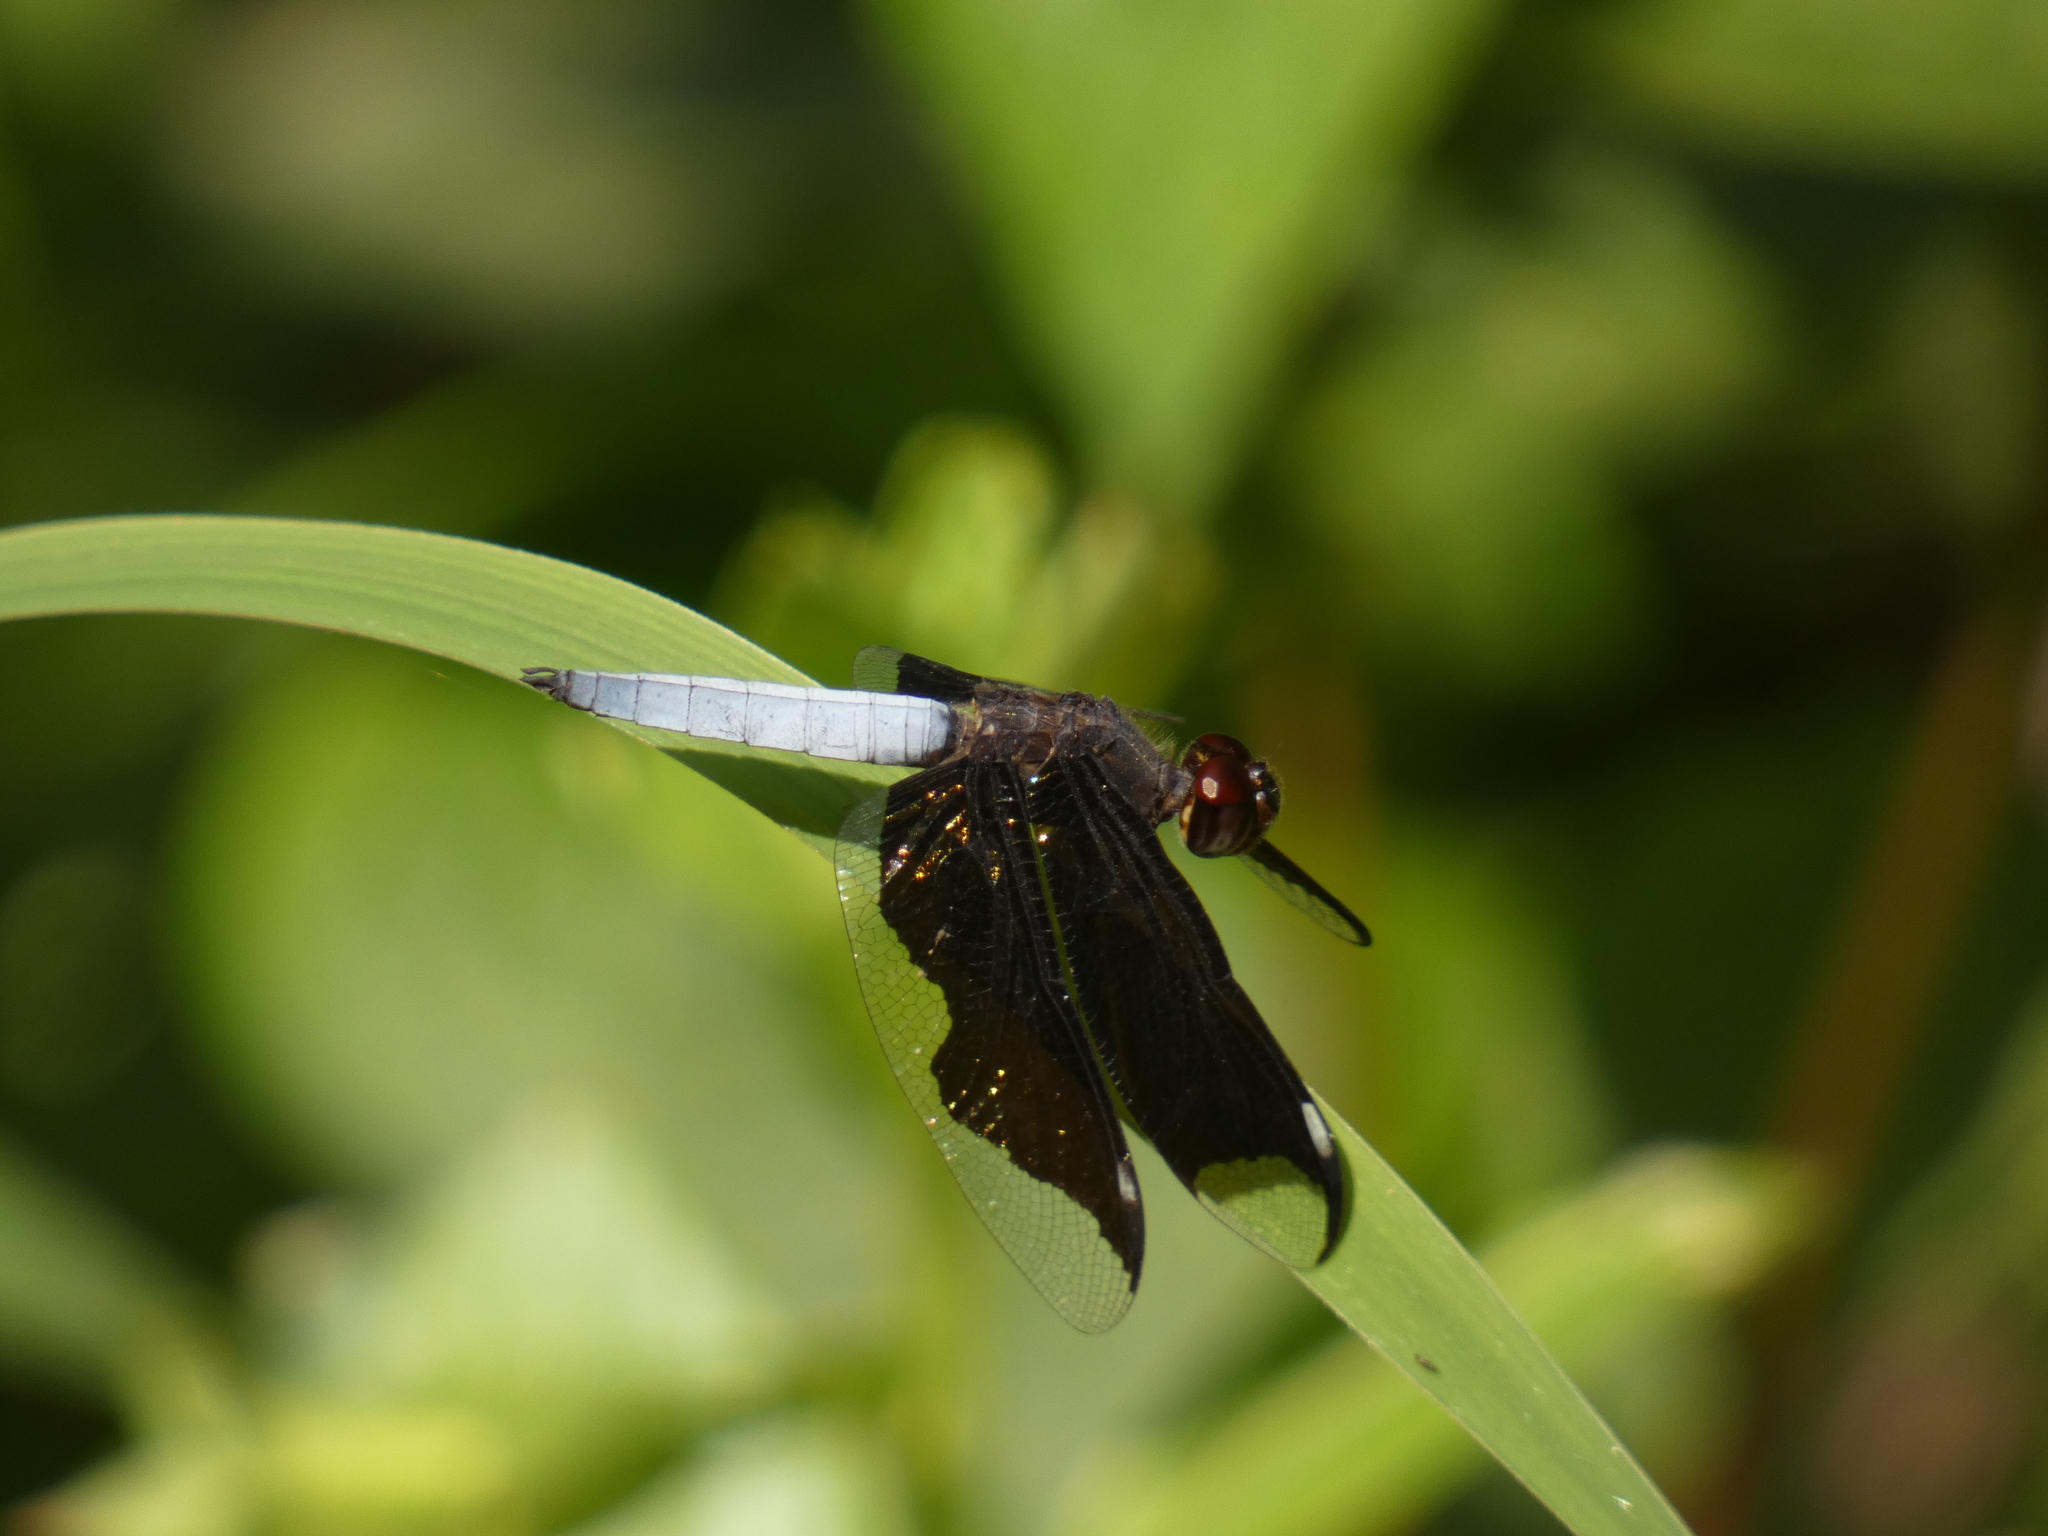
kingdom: Animalia
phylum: Arthropoda
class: Insecta
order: Odonata
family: Libellulidae
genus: Palpopleura
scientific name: Palpopleura lucia
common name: Lucia widow
